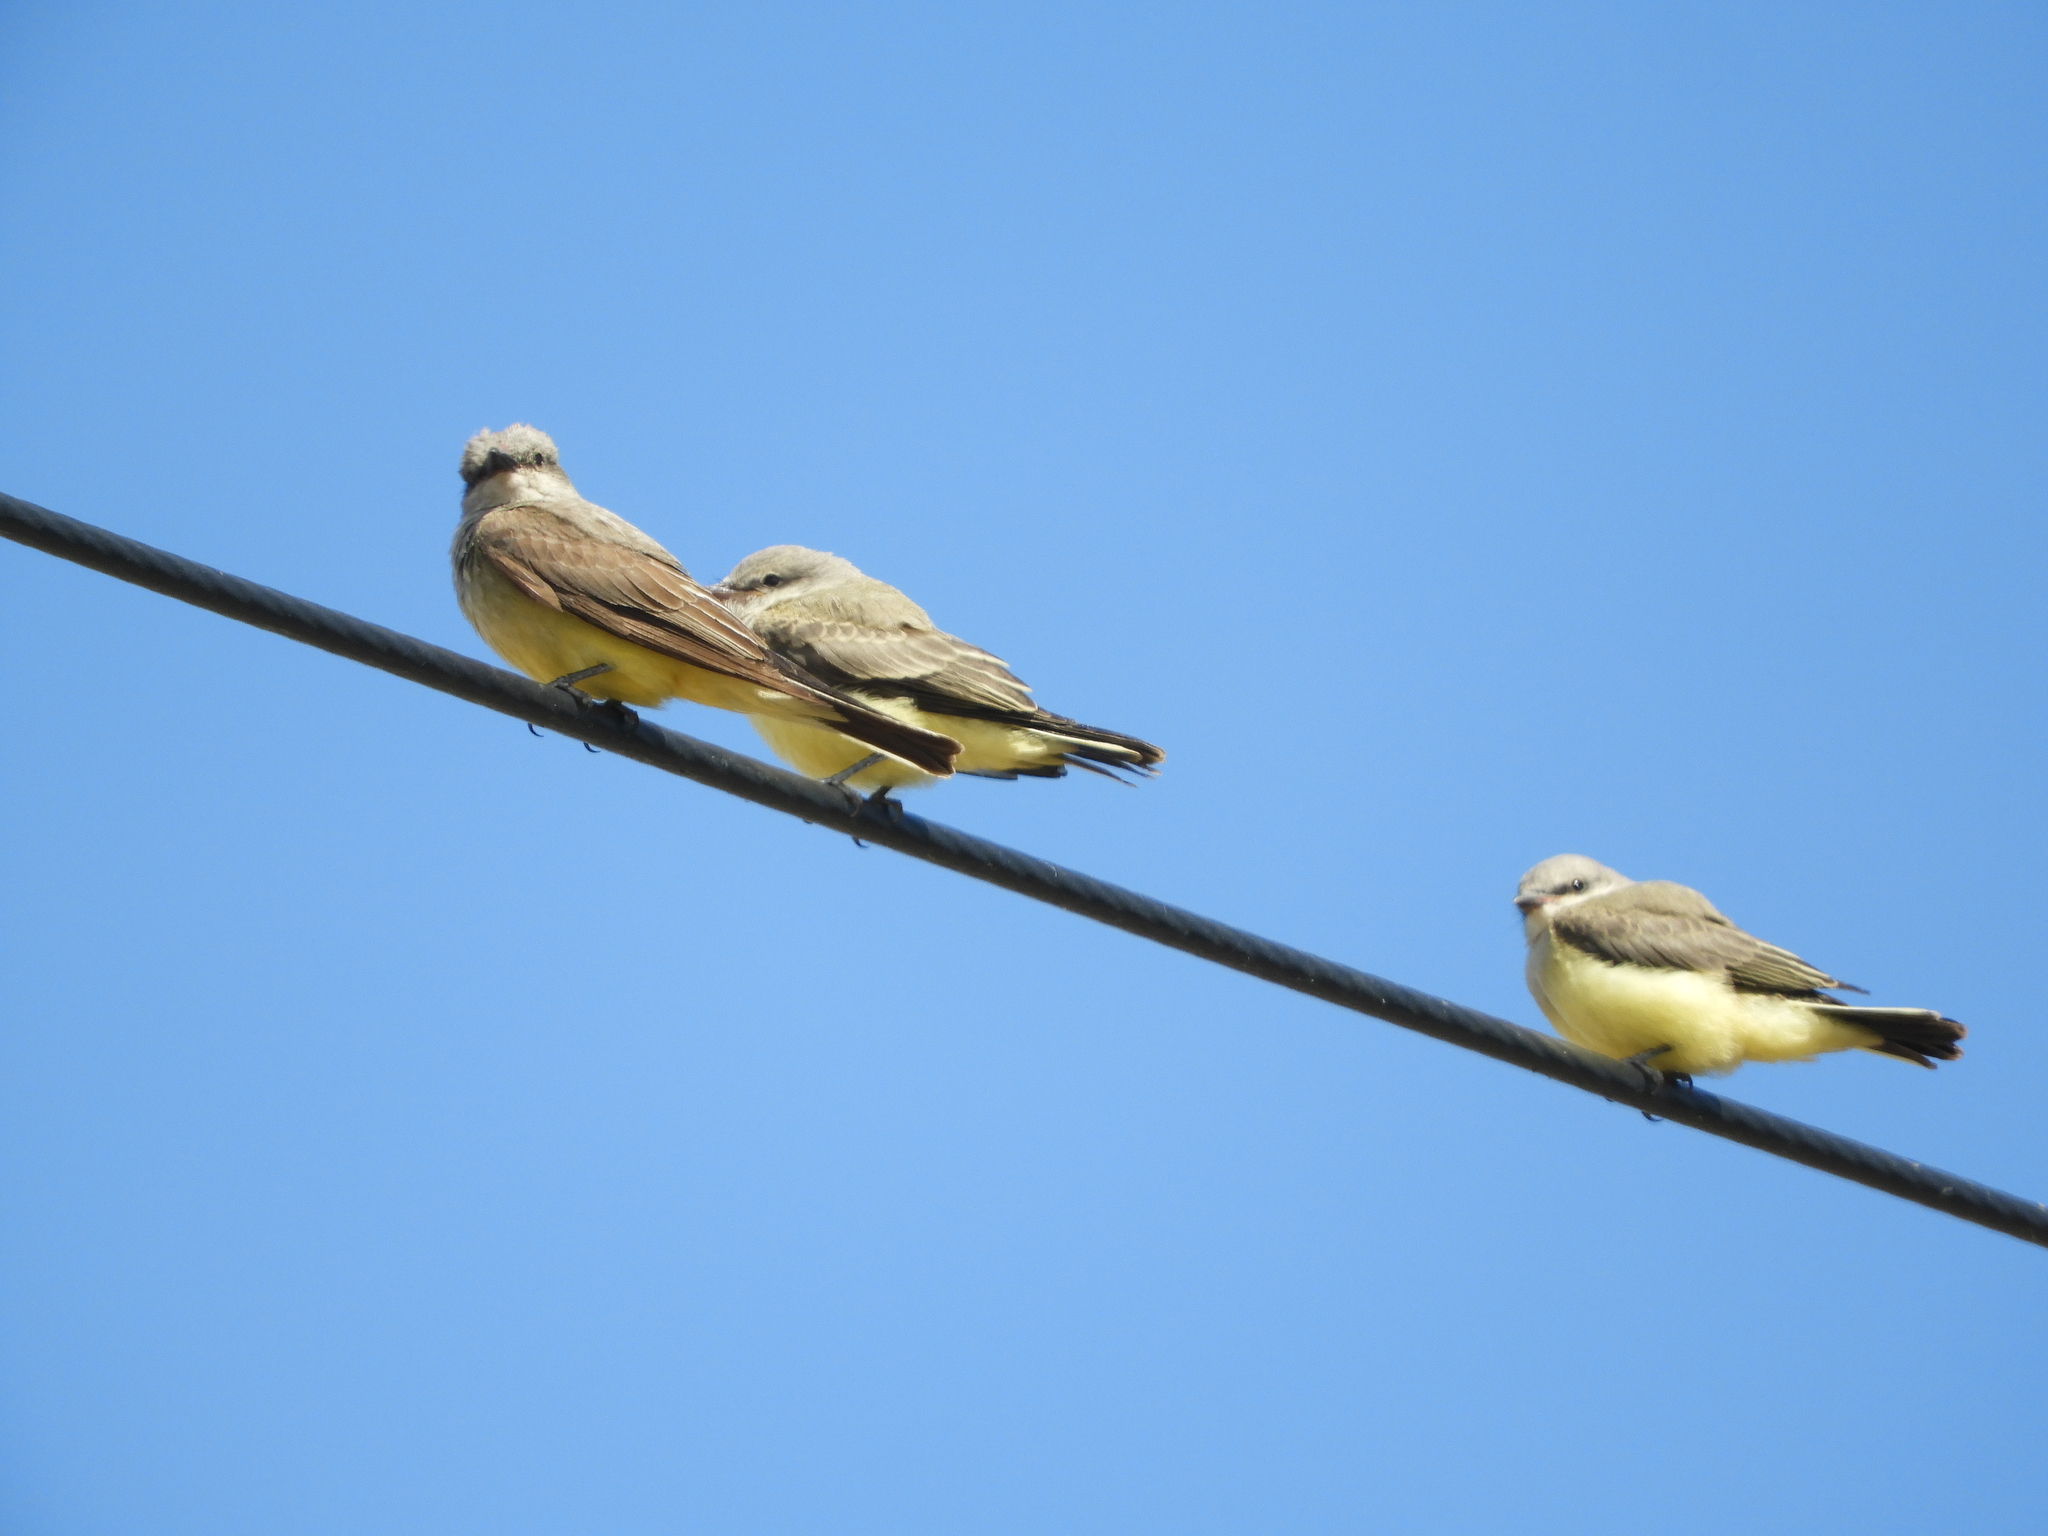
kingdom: Animalia
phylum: Chordata
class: Aves
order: Passeriformes
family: Tyrannidae
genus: Tyrannus
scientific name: Tyrannus verticalis
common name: Western kingbird
